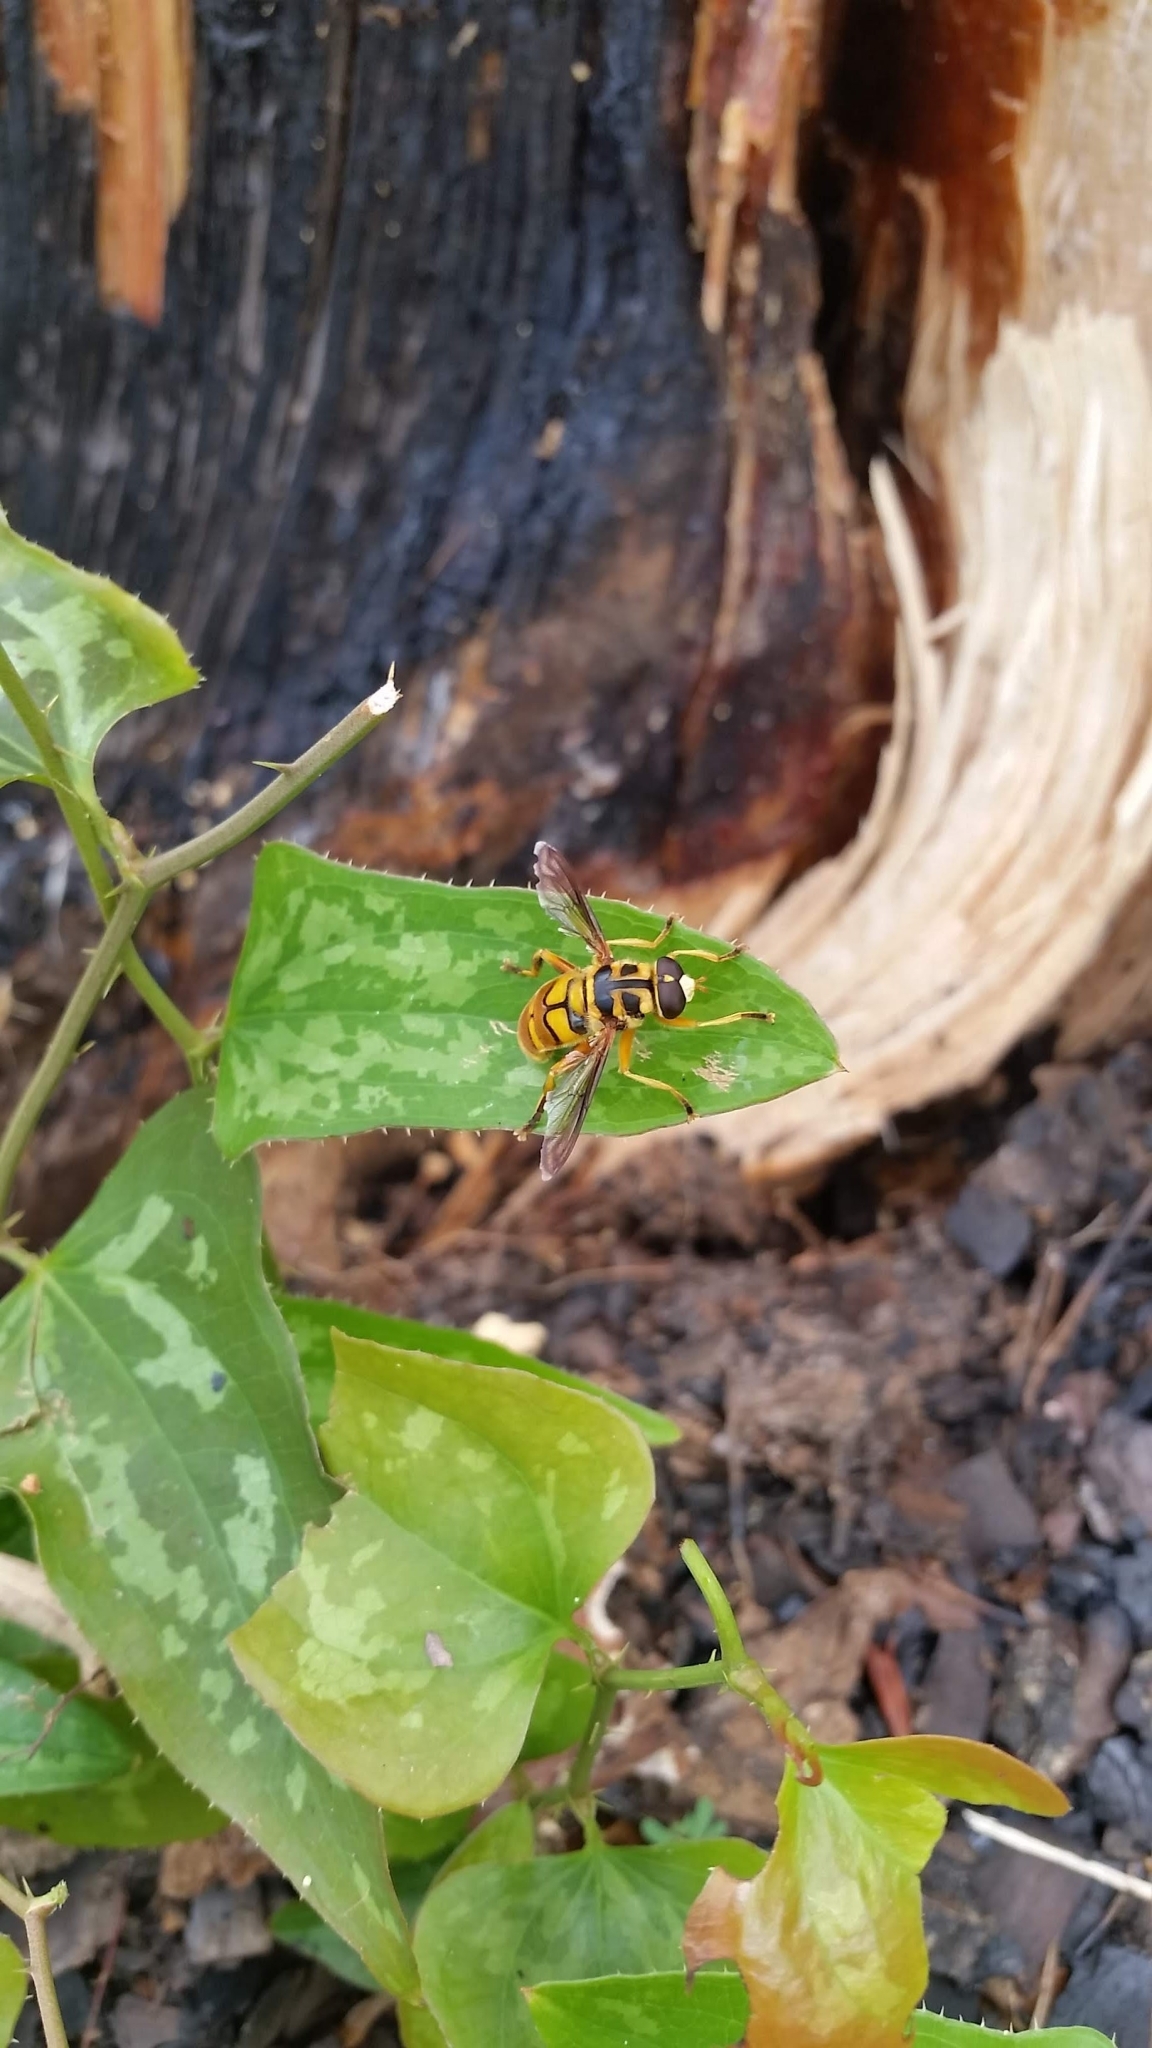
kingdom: Animalia
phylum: Arthropoda
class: Insecta
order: Diptera
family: Syrphidae
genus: Milesia
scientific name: Milesia scutellata
